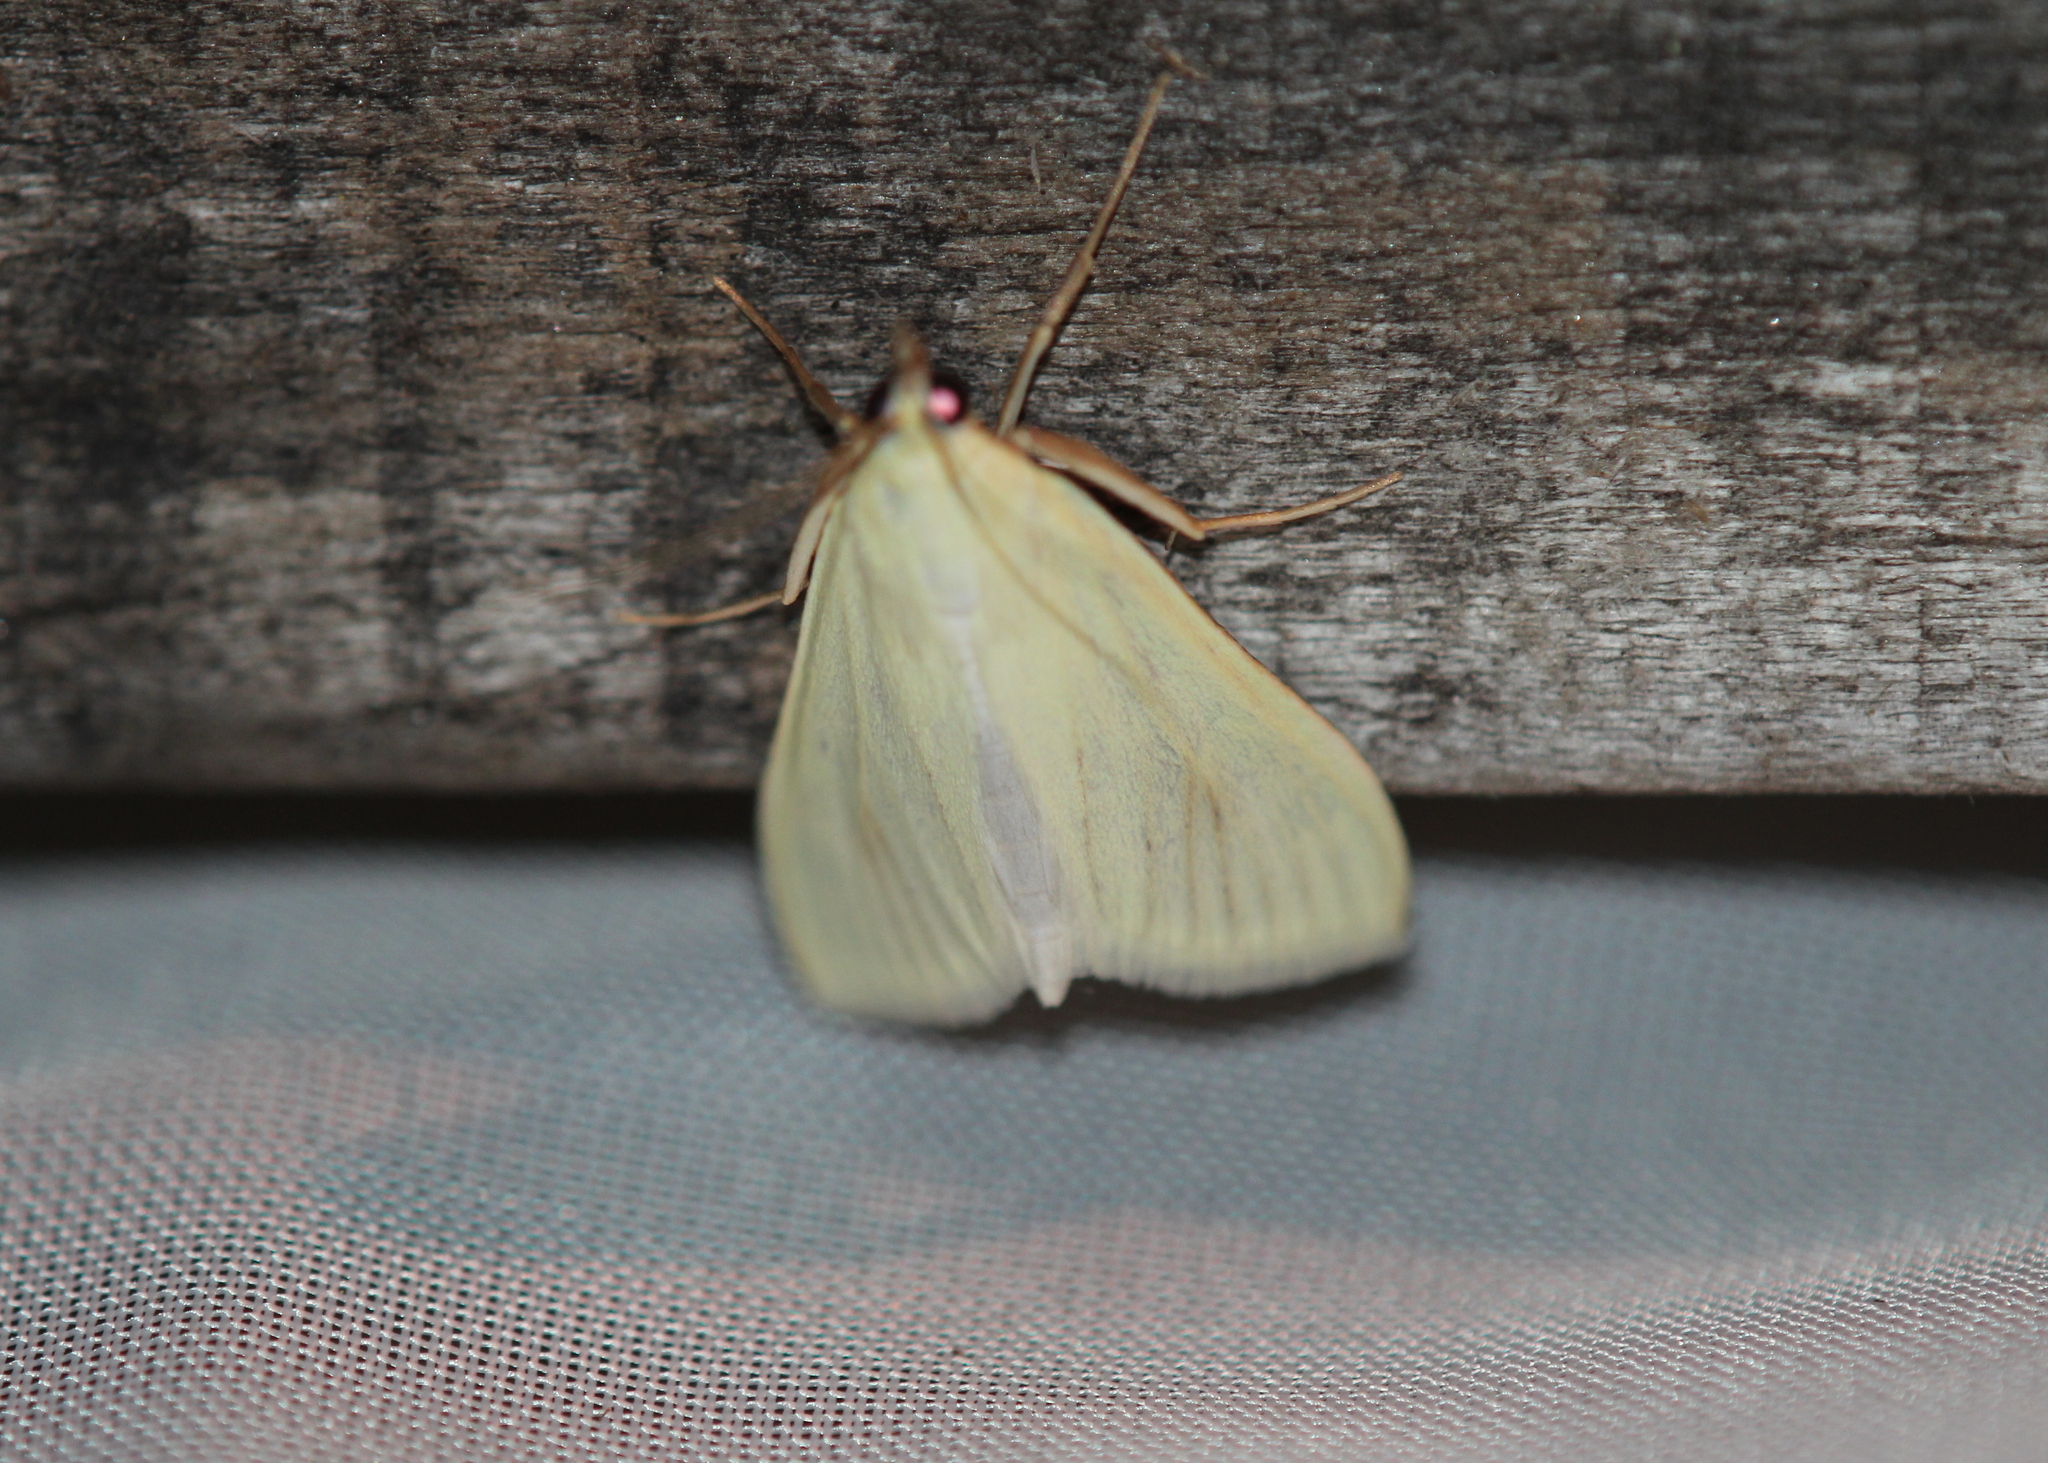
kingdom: Animalia
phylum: Arthropoda
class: Insecta
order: Lepidoptera
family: Crambidae
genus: Sitochroa
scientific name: Sitochroa palealis
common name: Greenish-yellow sitochroa moth
